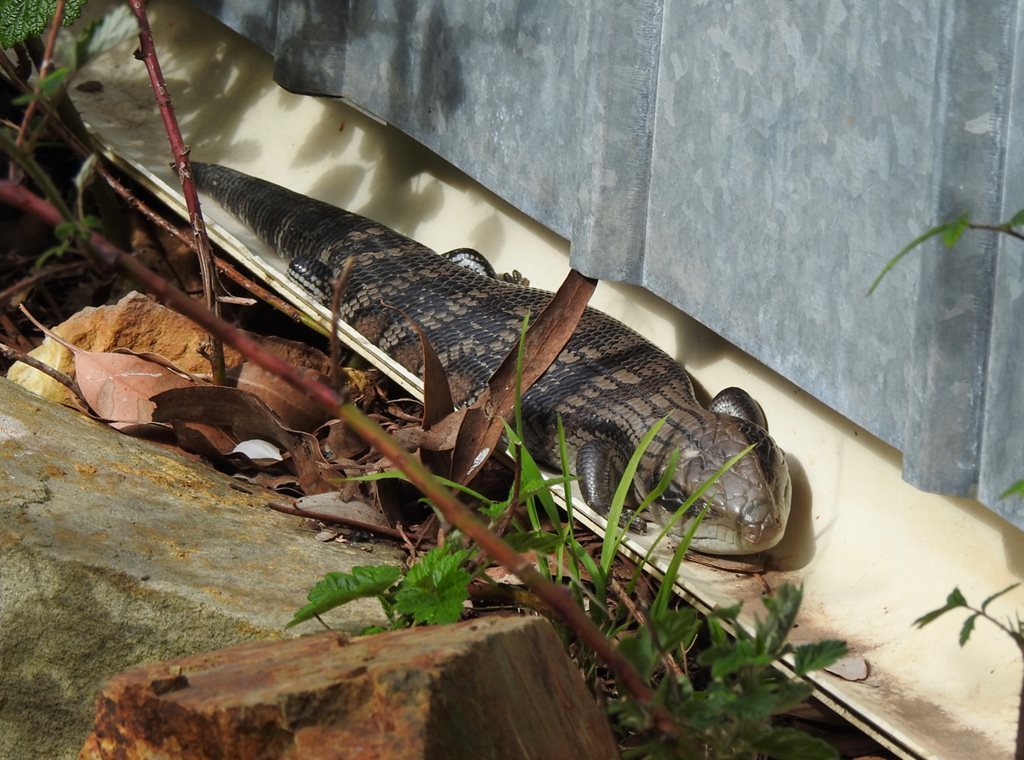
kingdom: Animalia
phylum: Chordata
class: Squamata
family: Scincidae
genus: Tiliqua
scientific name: Tiliqua scincoides
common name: Common bluetongue
